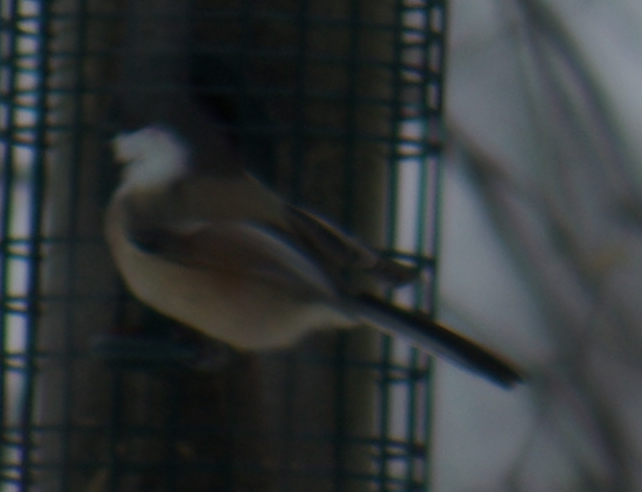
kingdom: Animalia
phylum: Chordata
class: Aves
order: Passeriformes
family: Paridae
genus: Poecile
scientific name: Poecile atricapillus
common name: Black-capped chickadee
